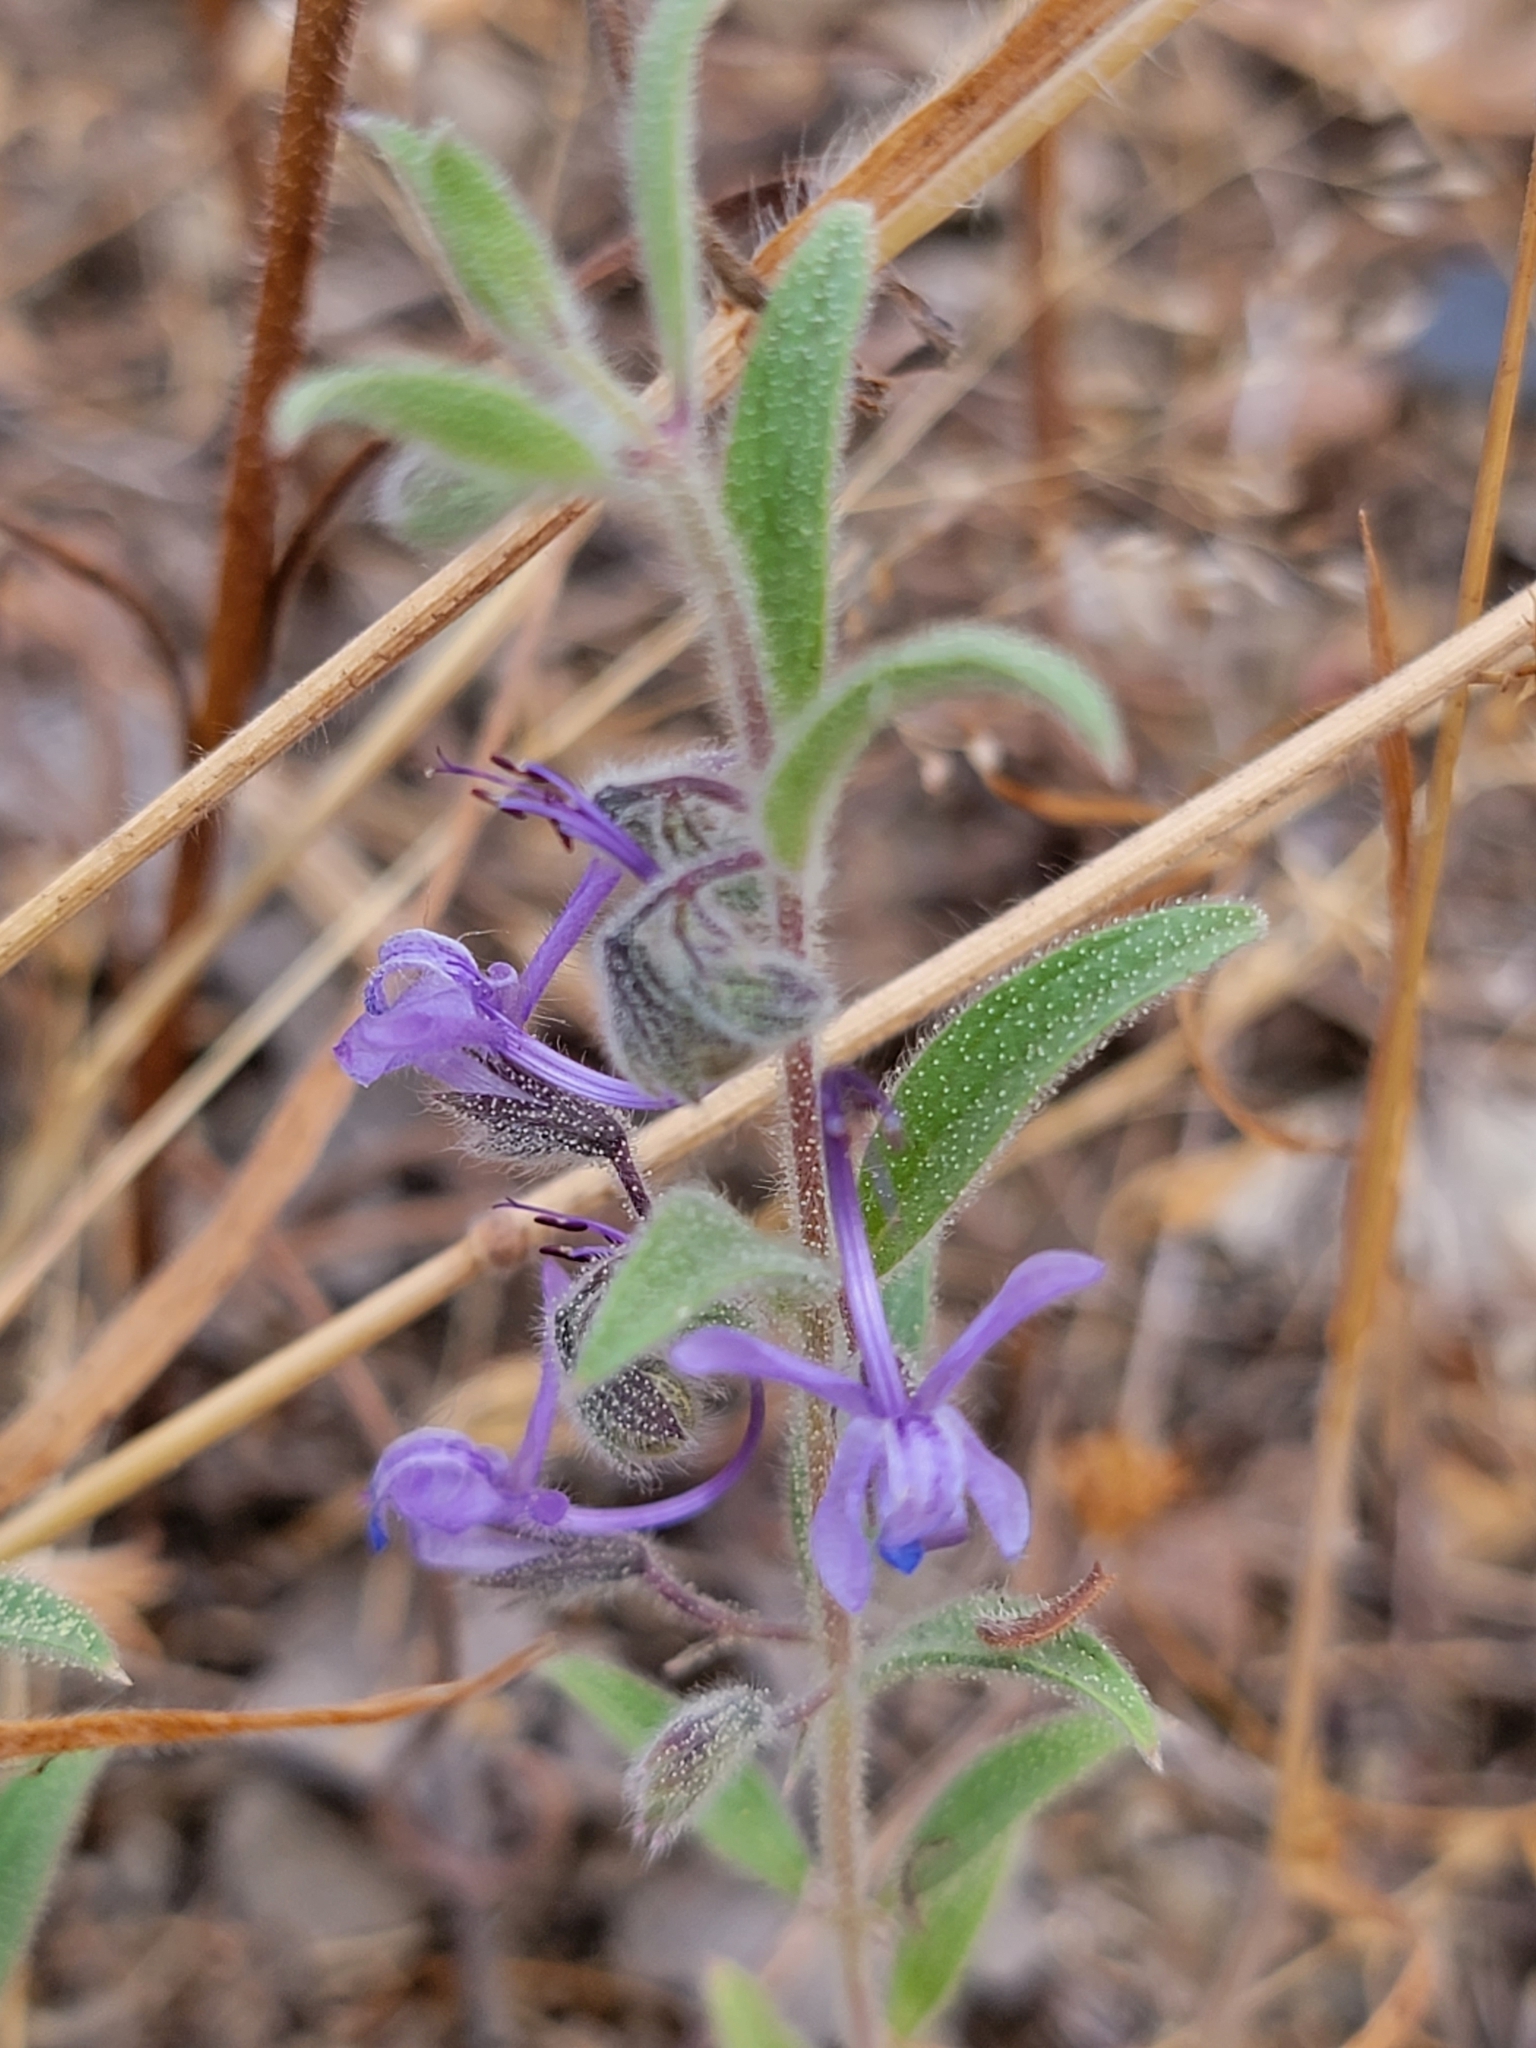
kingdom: Plantae
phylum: Tracheophyta
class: Magnoliopsida
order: Lamiales
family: Lamiaceae
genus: Trichostema
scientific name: Trichostema lanceolatum
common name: Vinegar-weed
